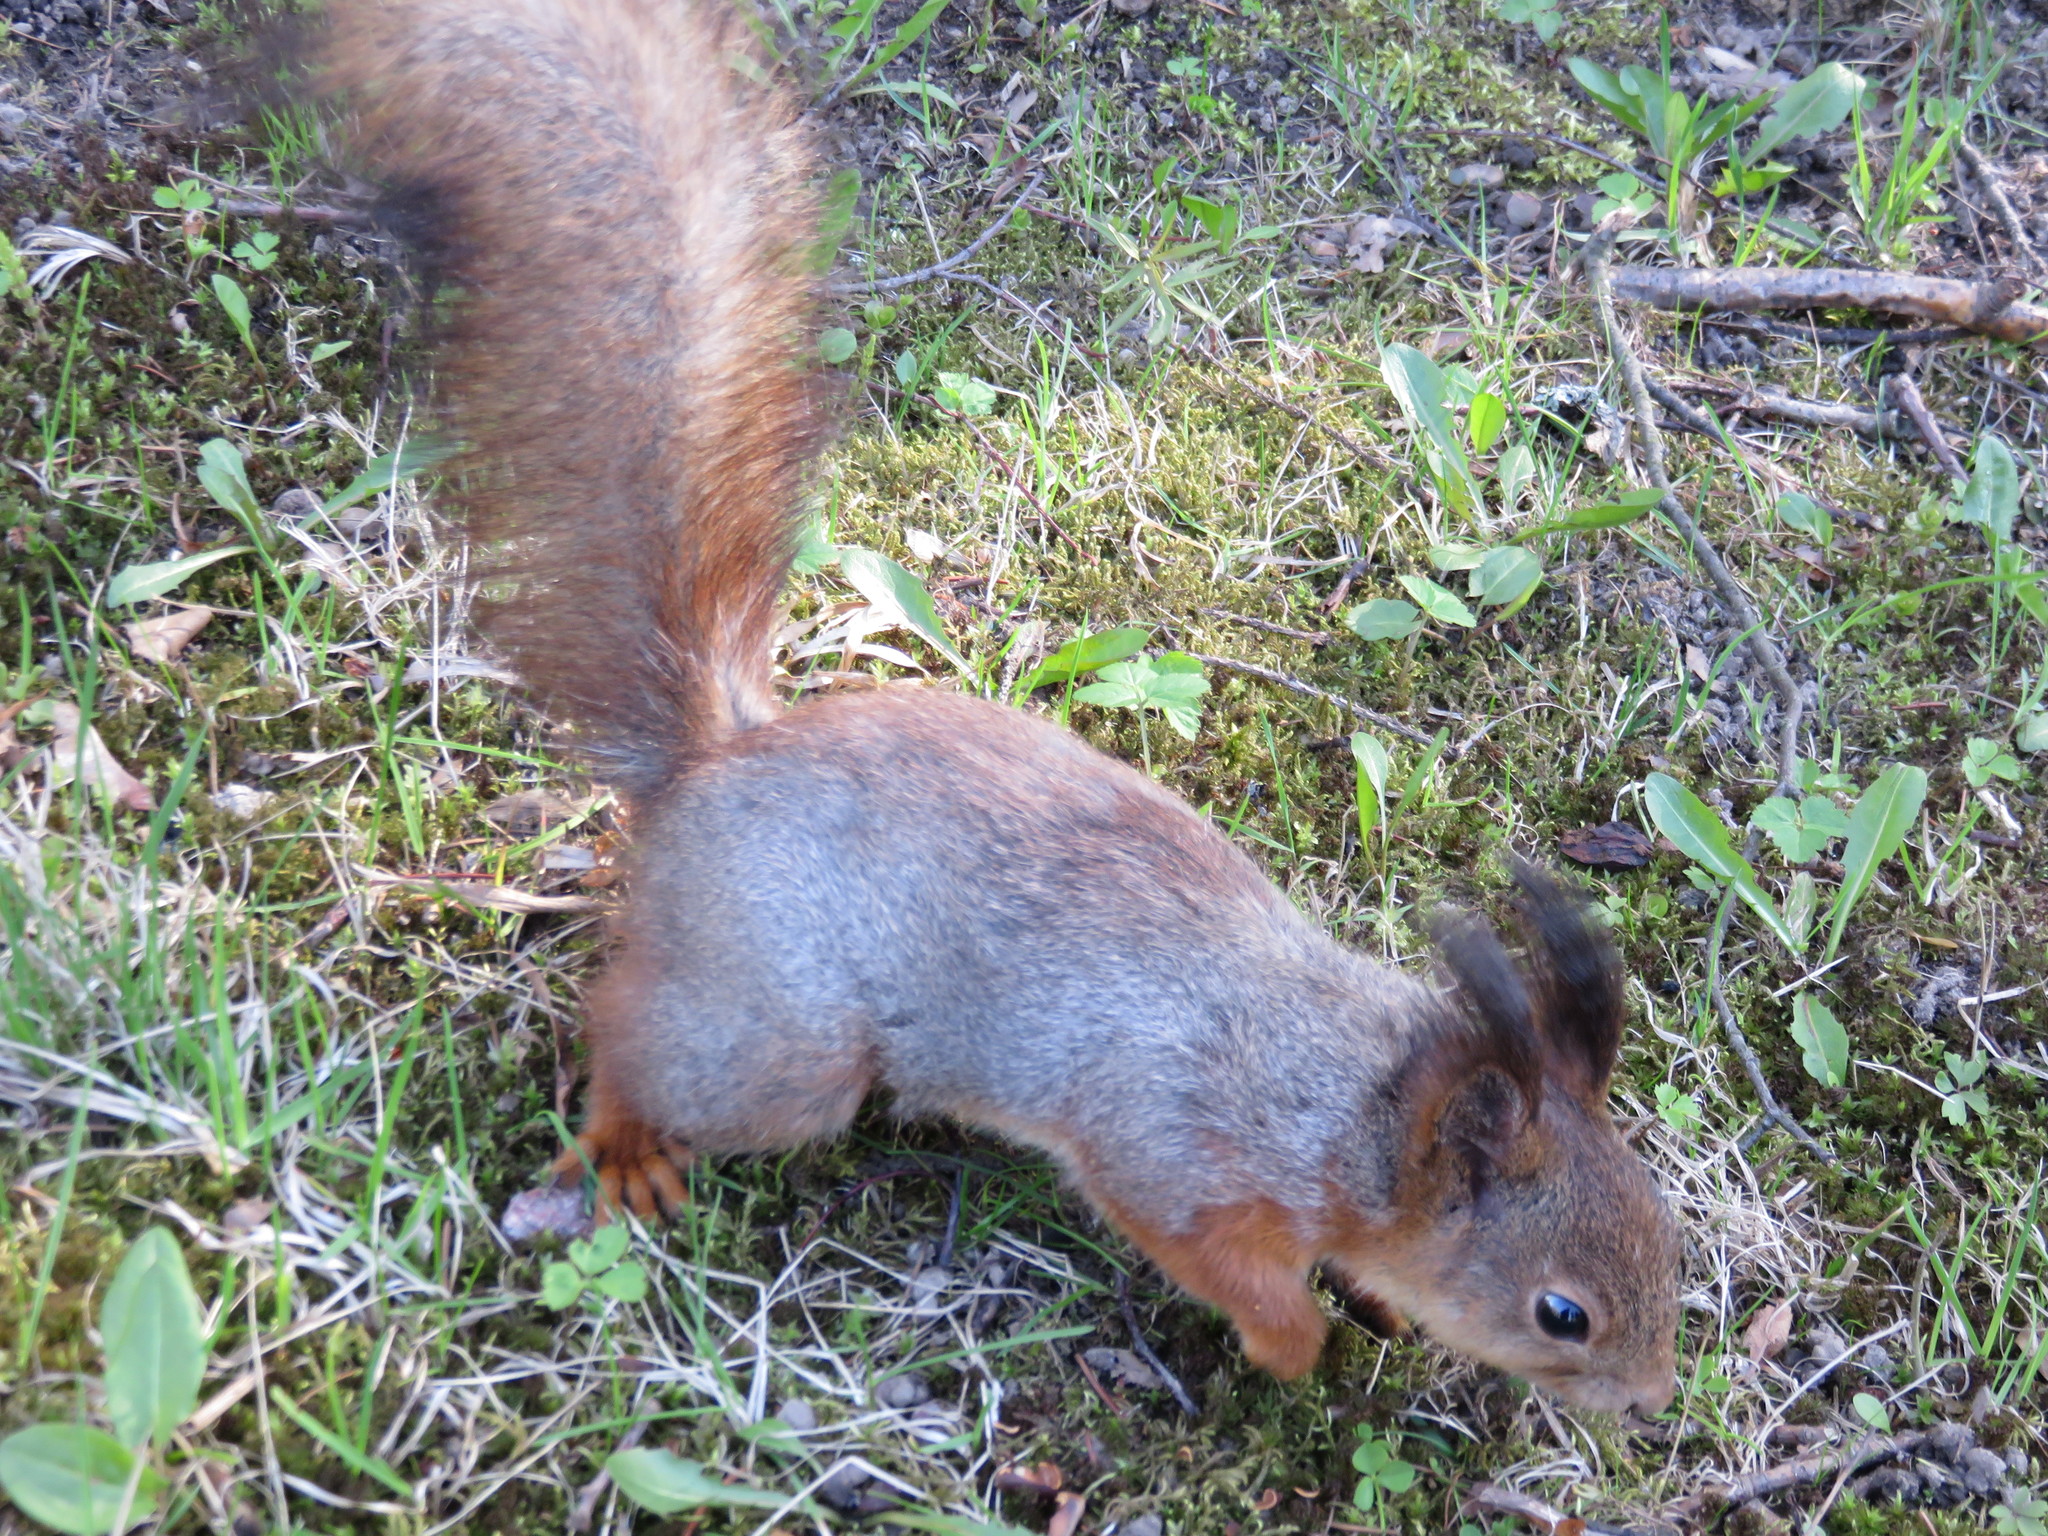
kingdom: Animalia
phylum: Chordata
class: Mammalia
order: Rodentia
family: Sciuridae
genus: Sciurus
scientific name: Sciurus vulgaris
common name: Eurasian red squirrel
